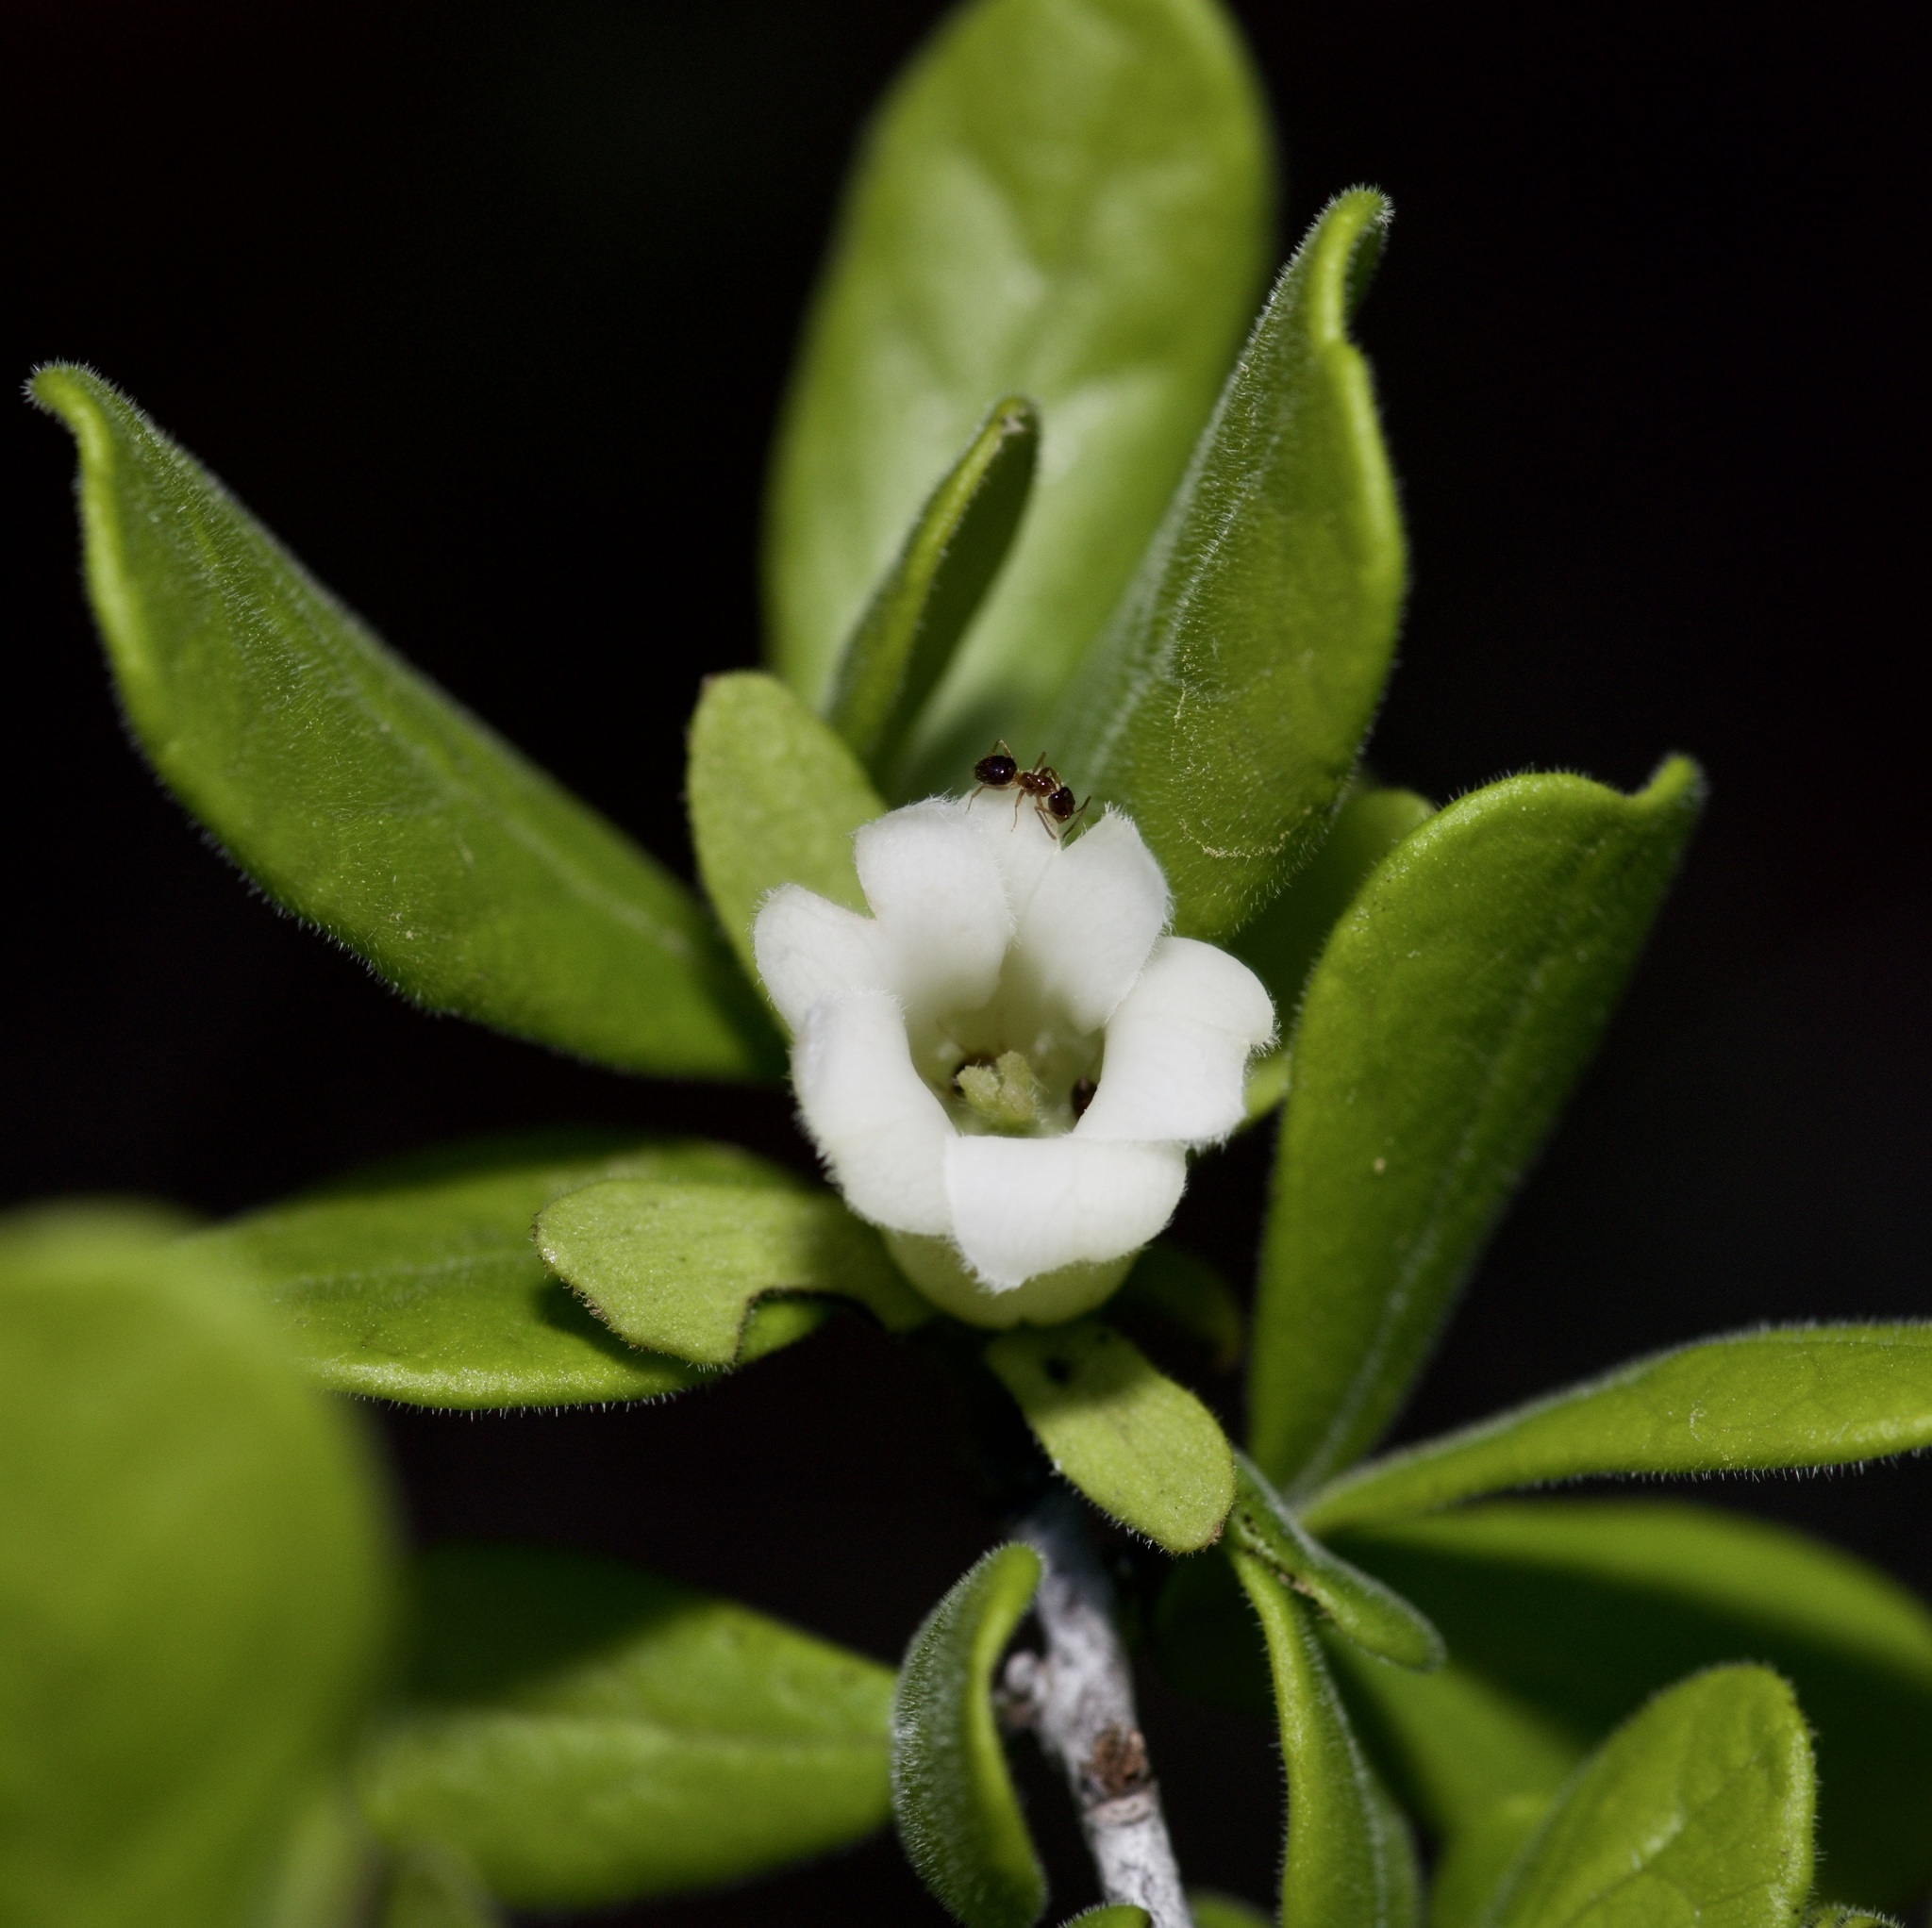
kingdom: Plantae
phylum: Tracheophyta
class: Magnoliopsida
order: Ericales
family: Ebenaceae
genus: Diospyros
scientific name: Diospyros texana
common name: Texas persimmon
